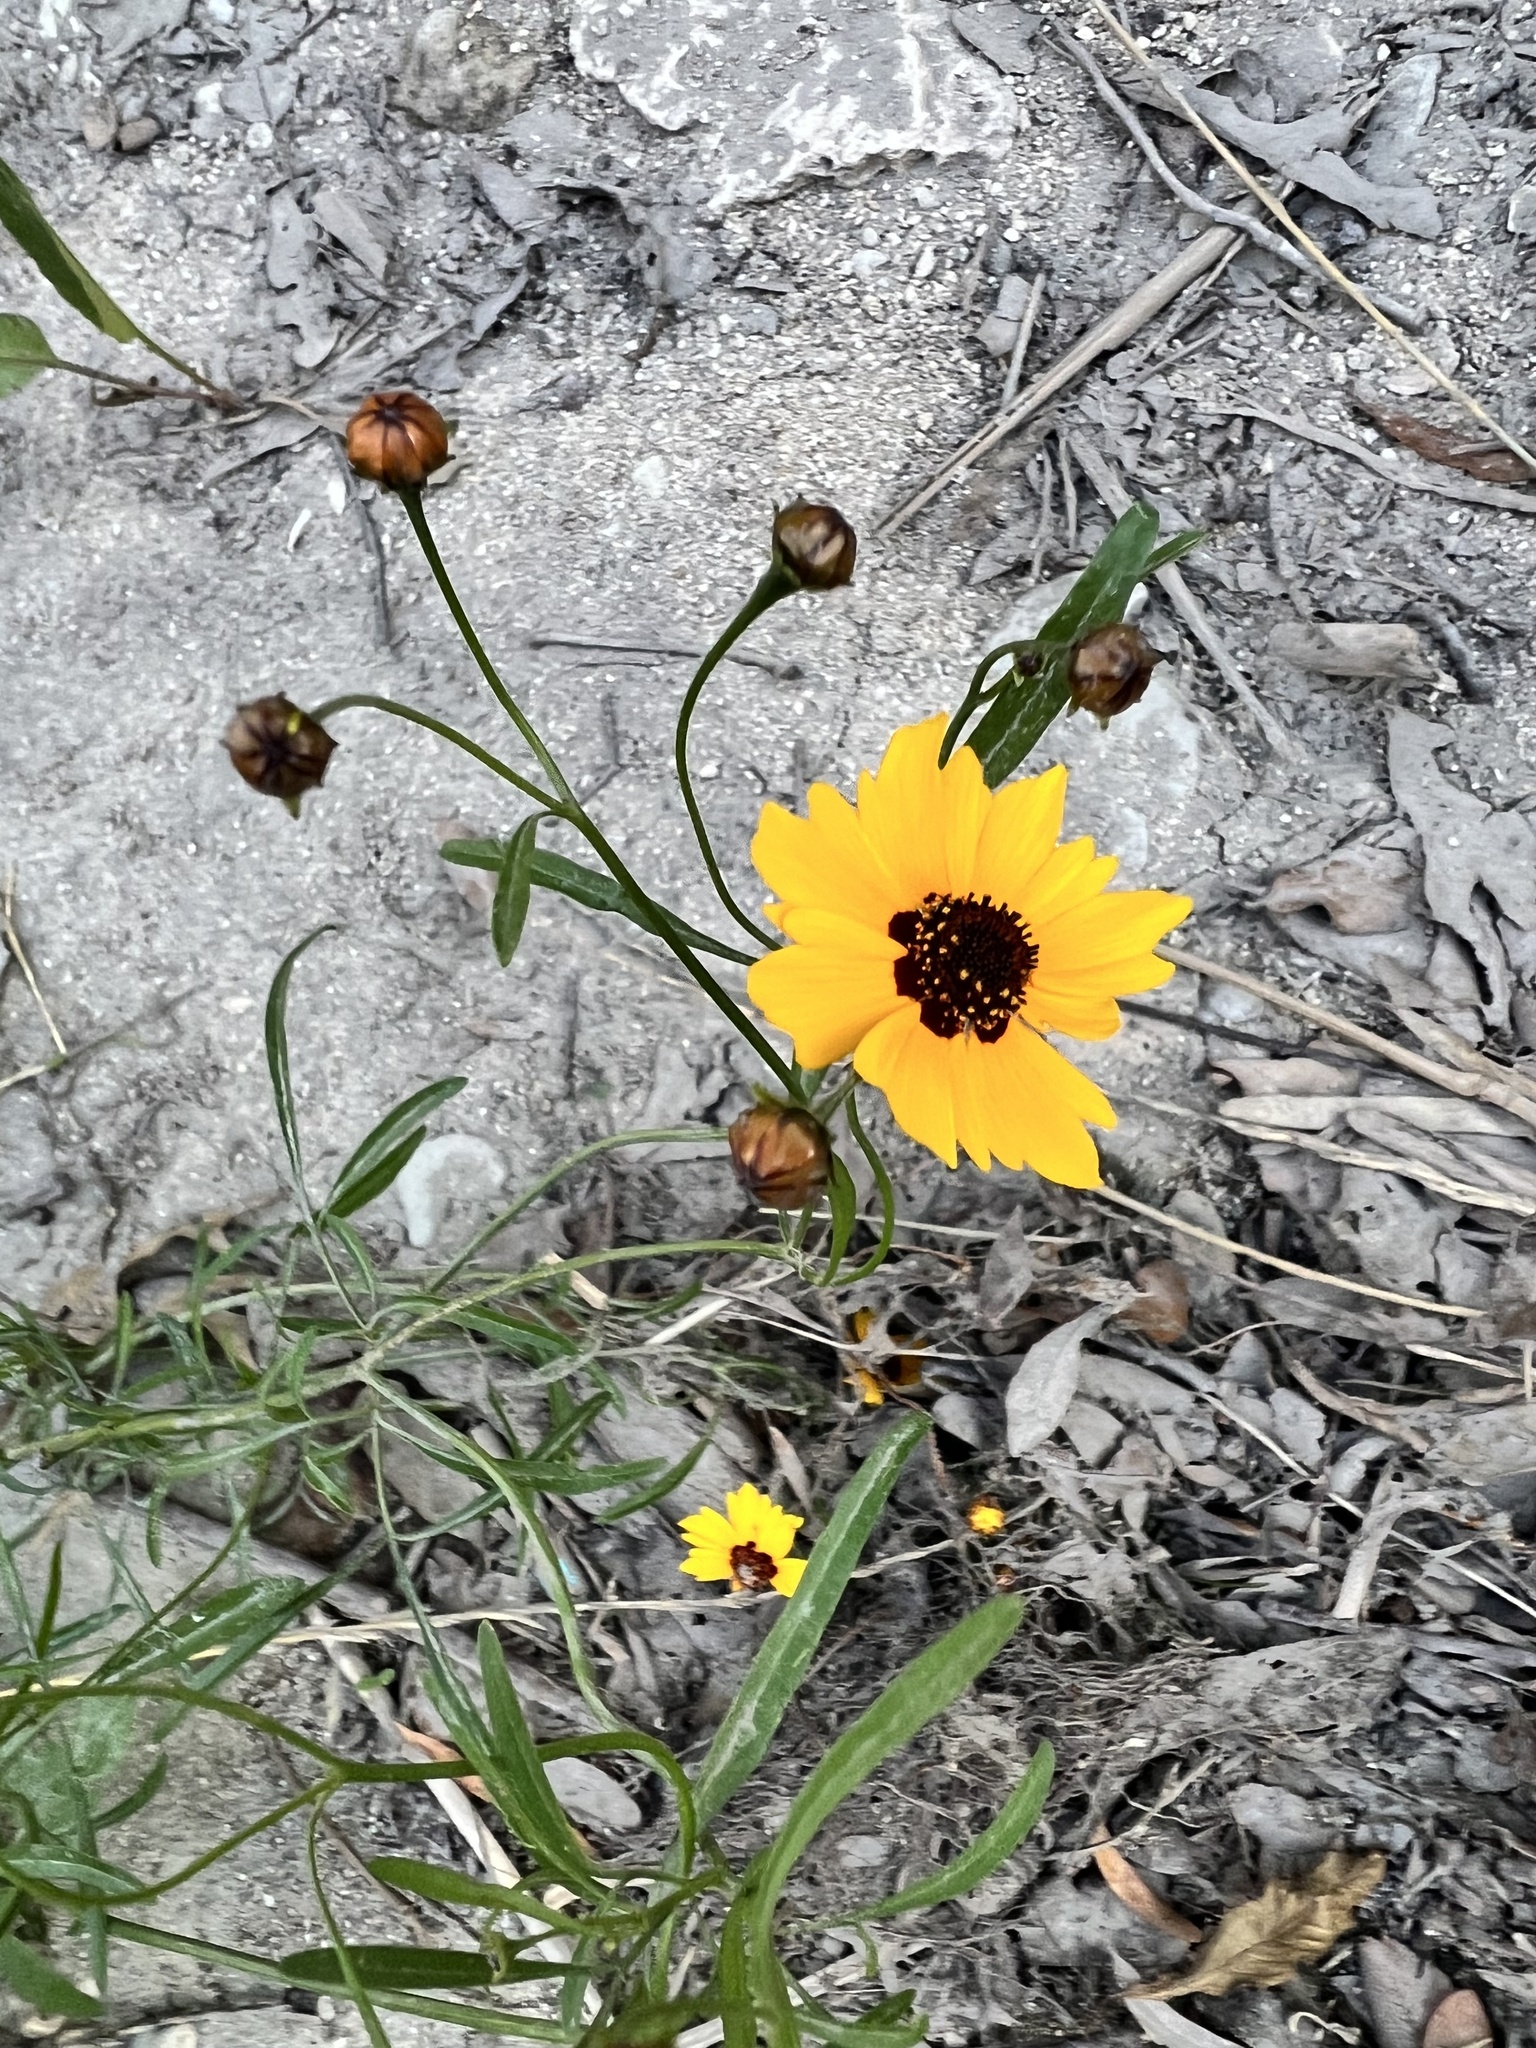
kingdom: Plantae
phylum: Tracheophyta
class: Magnoliopsida
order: Asterales
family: Asteraceae
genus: Coreopsis
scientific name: Coreopsis tinctoria
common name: Garden tickseed
